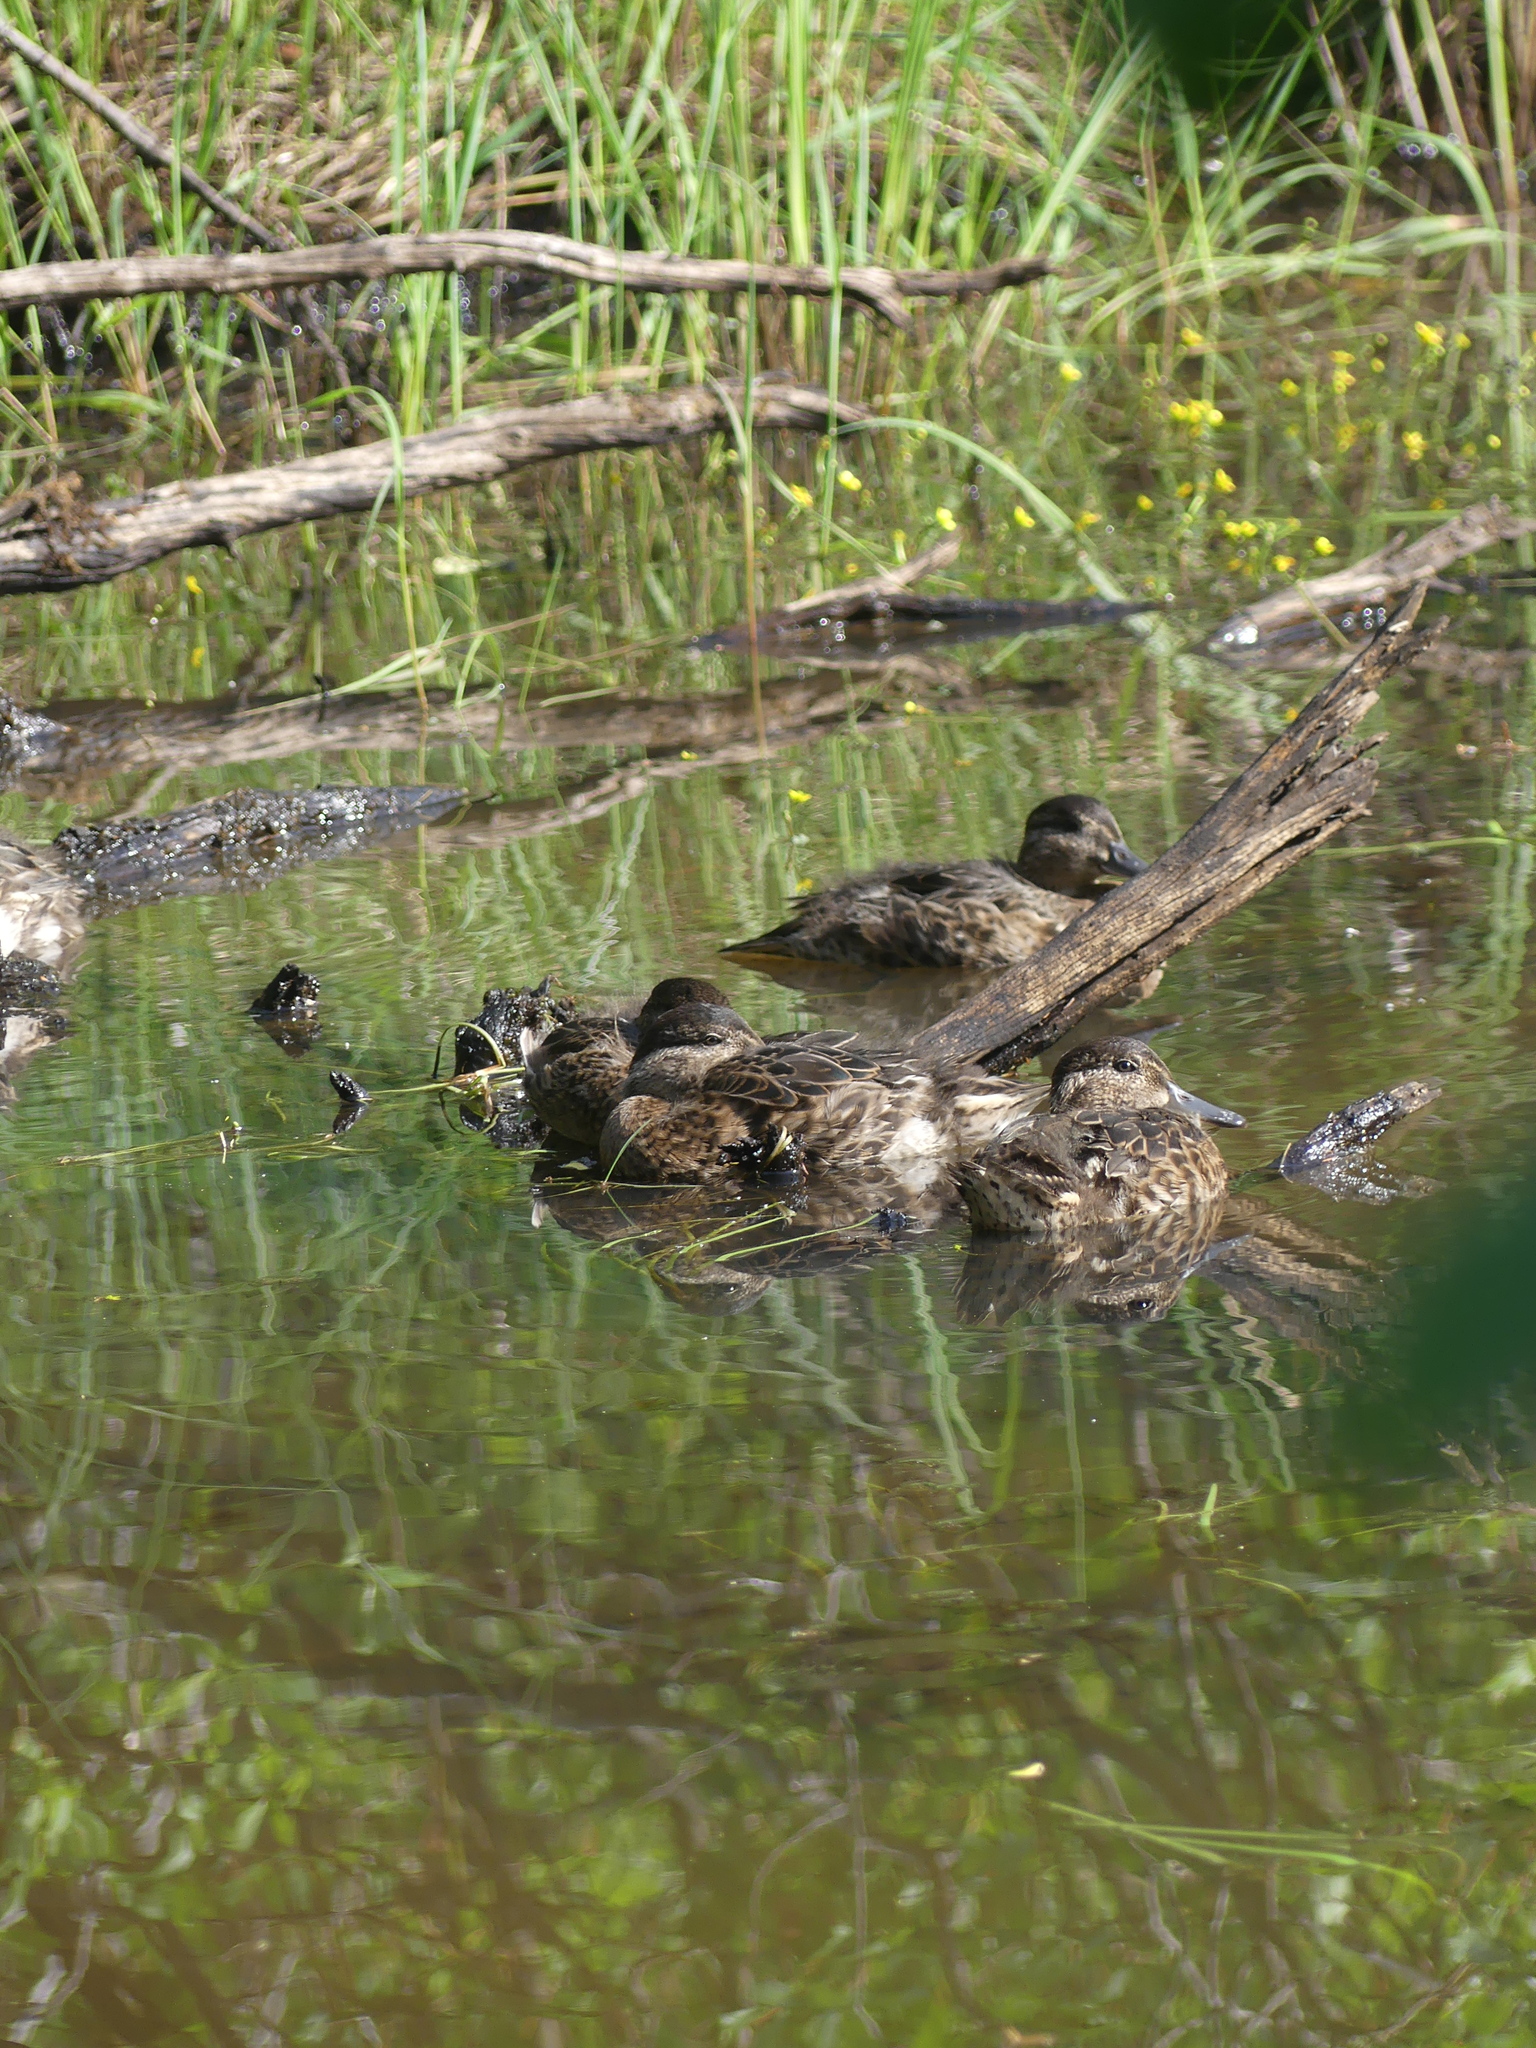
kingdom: Animalia
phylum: Chordata
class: Aves
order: Anseriformes
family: Anatidae
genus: Anas
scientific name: Anas crecca
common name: Eurasian teal
